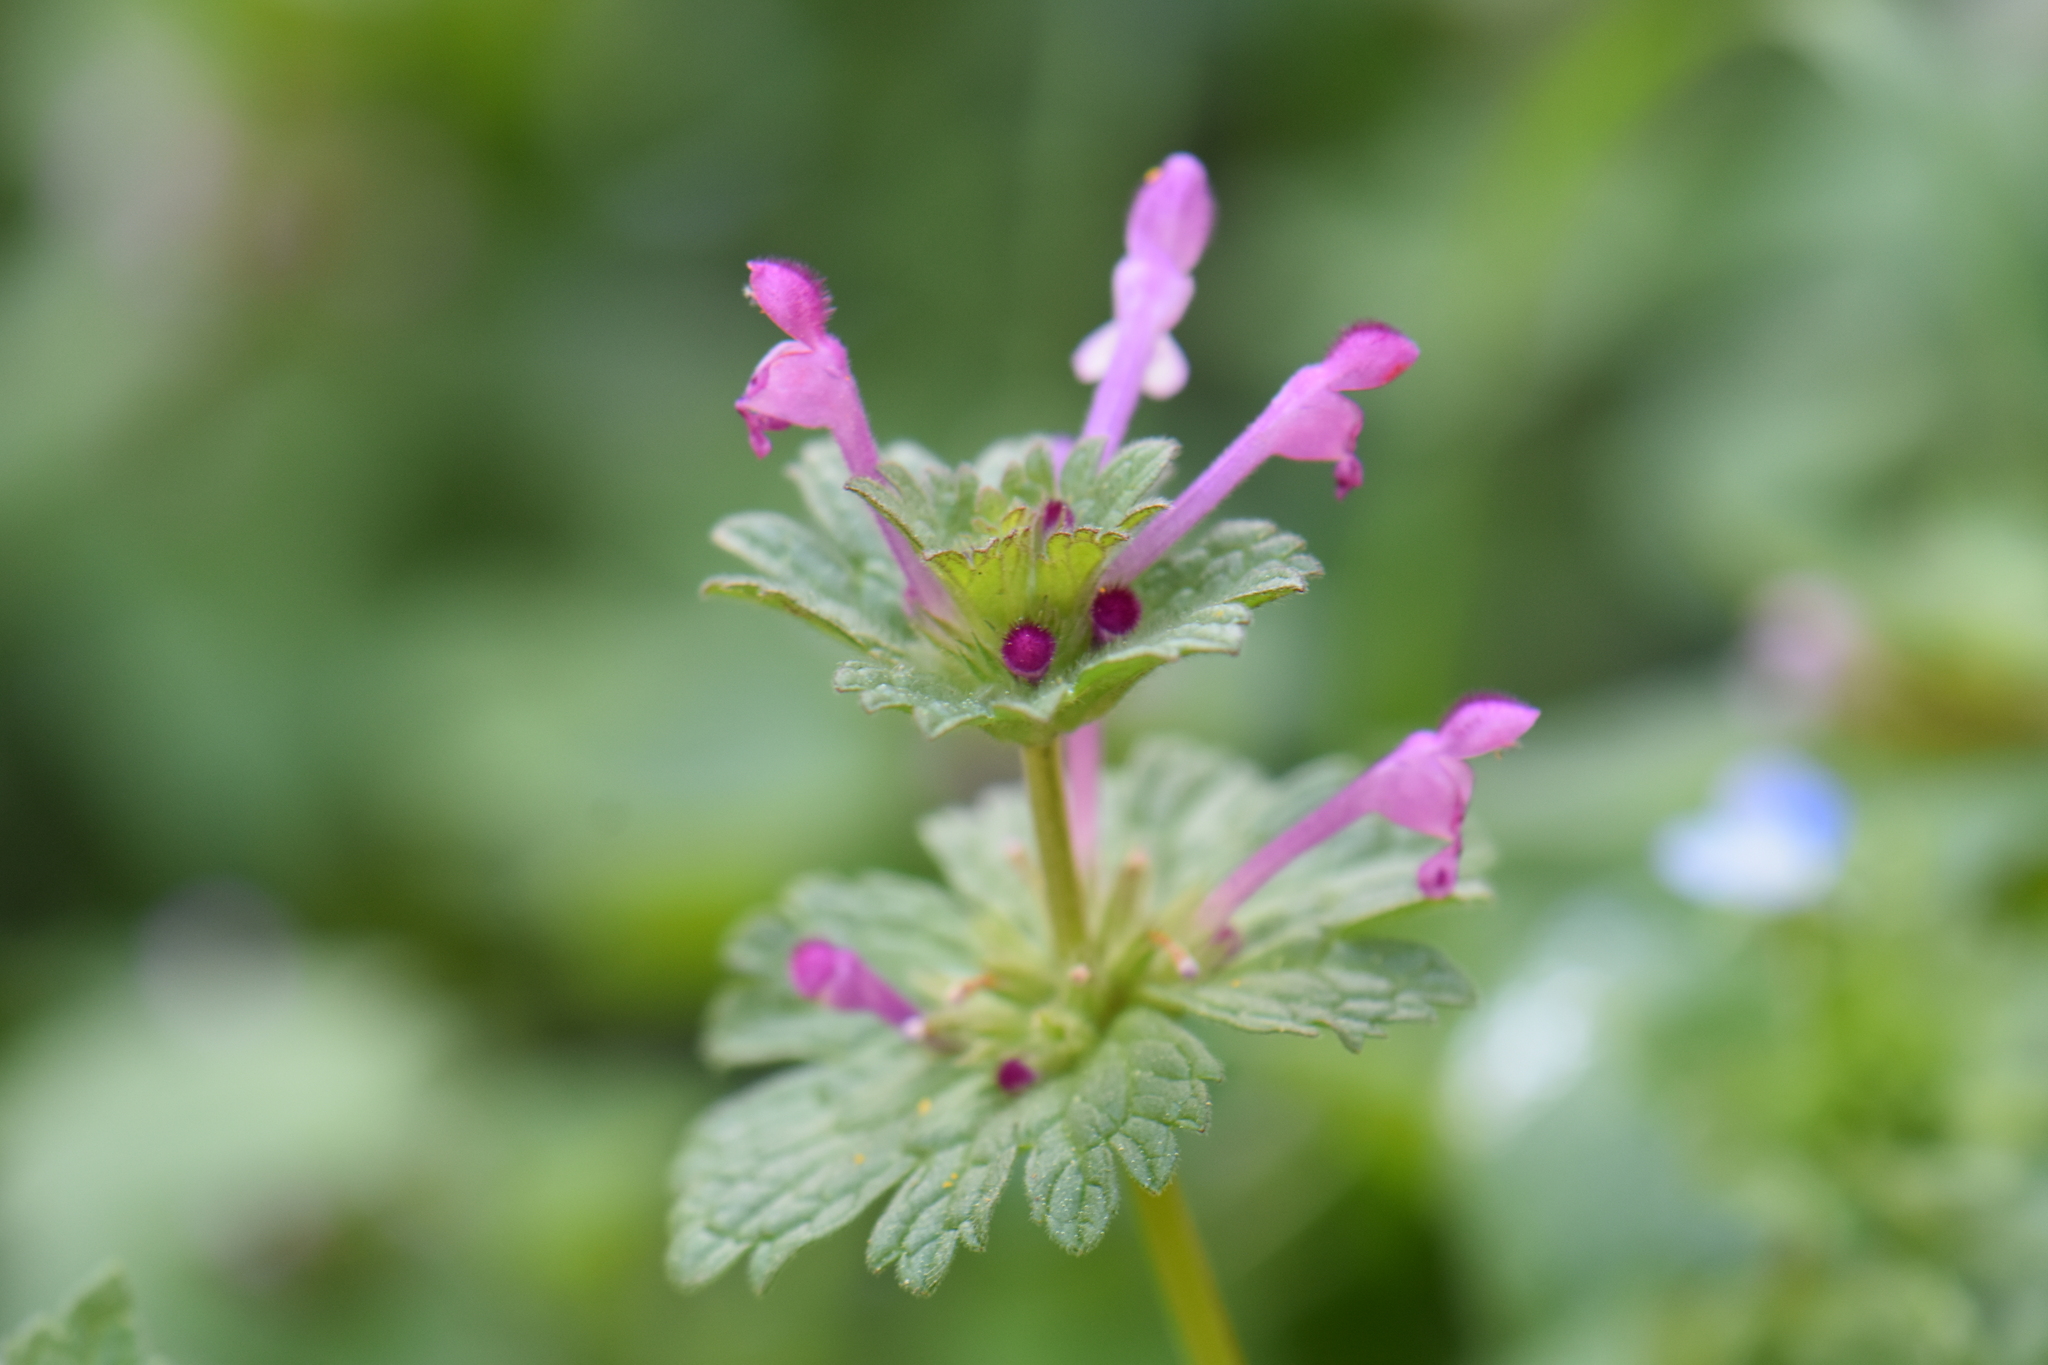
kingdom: Plantae
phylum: Tracheophyta
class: Magnoliopsida
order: Lamiales
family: Lamiaceae
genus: Lamium
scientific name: Lamium amplexicaule
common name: Henbit dead-nettle
